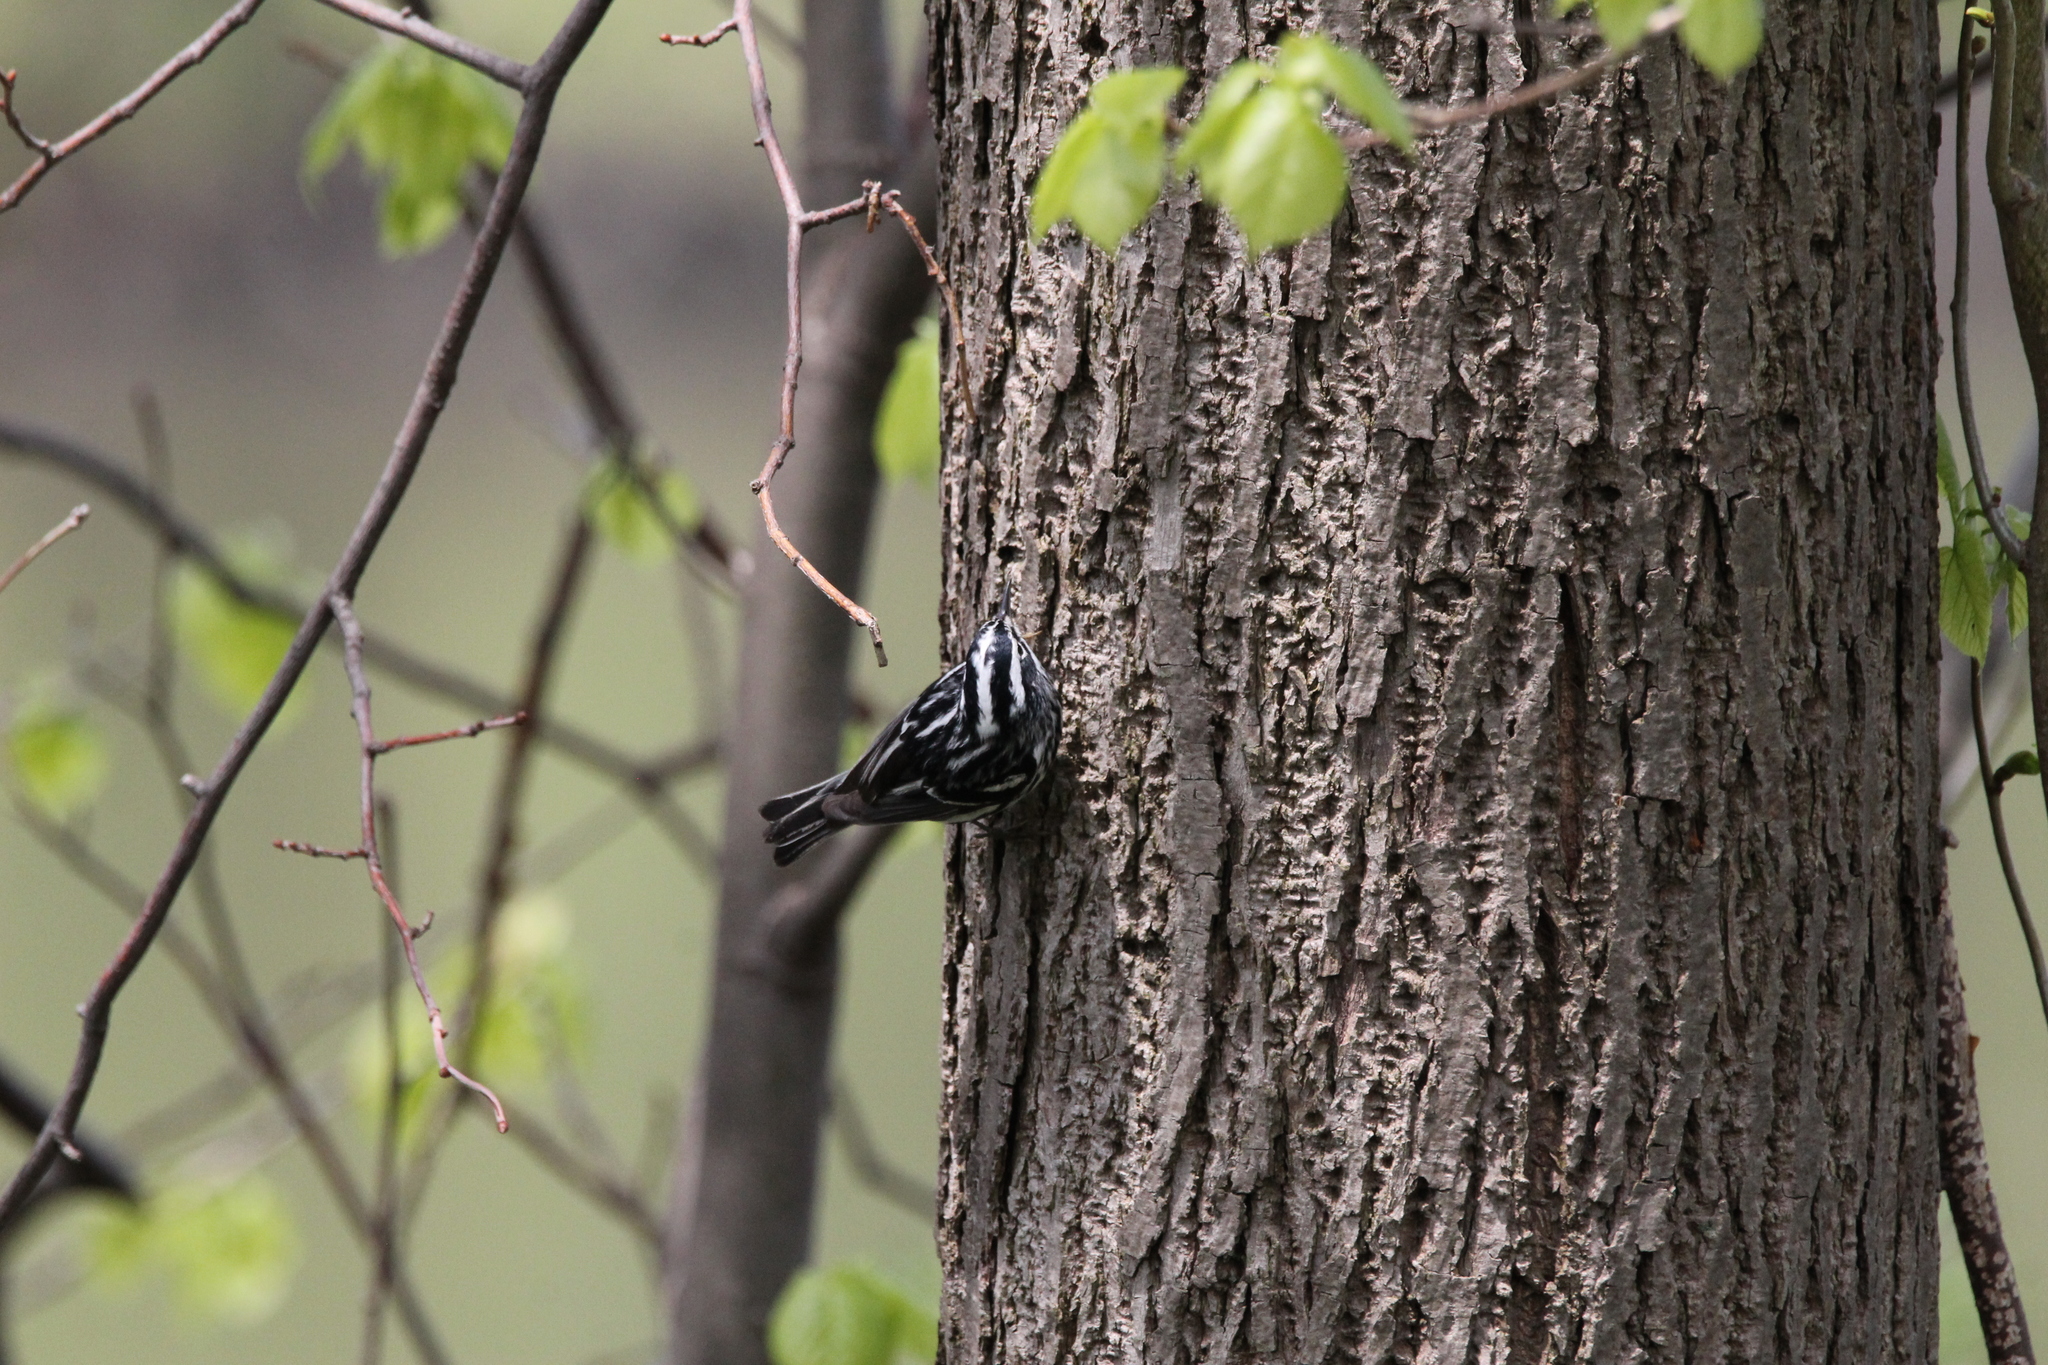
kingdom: Animalia
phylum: Chordata
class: Aves
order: Passeriformes
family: Parulidae
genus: Mniotilta
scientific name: Mniotilta varia
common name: Black-and-white warbler
